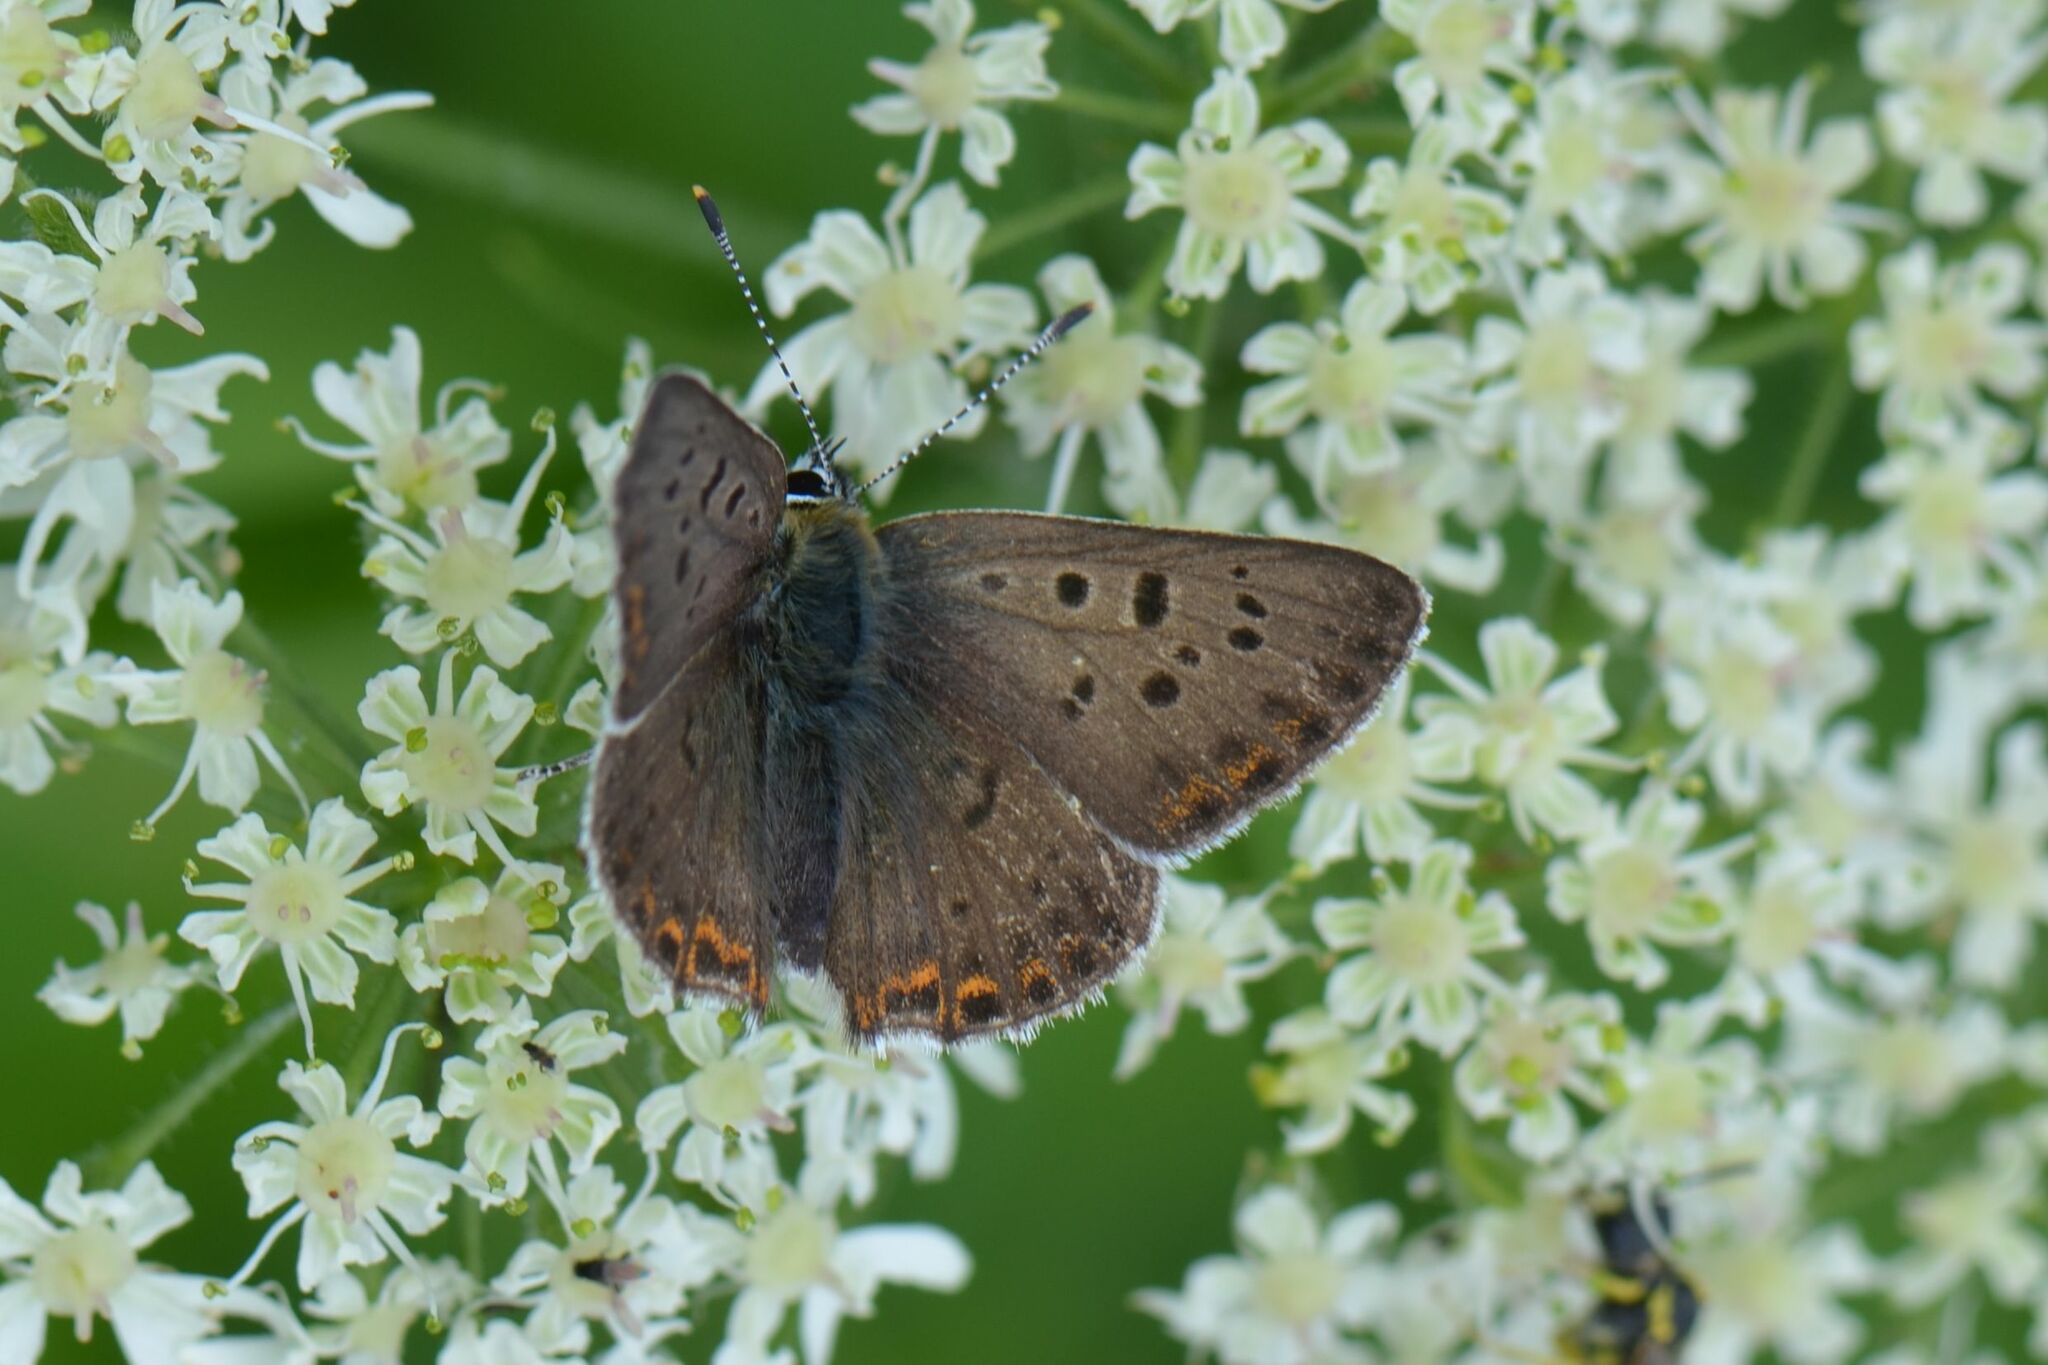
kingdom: Animalia
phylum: Arthropoda
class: Insecta
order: Lepidoptera
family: Lycaenidae
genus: Loweia
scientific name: Loweia tityrus
